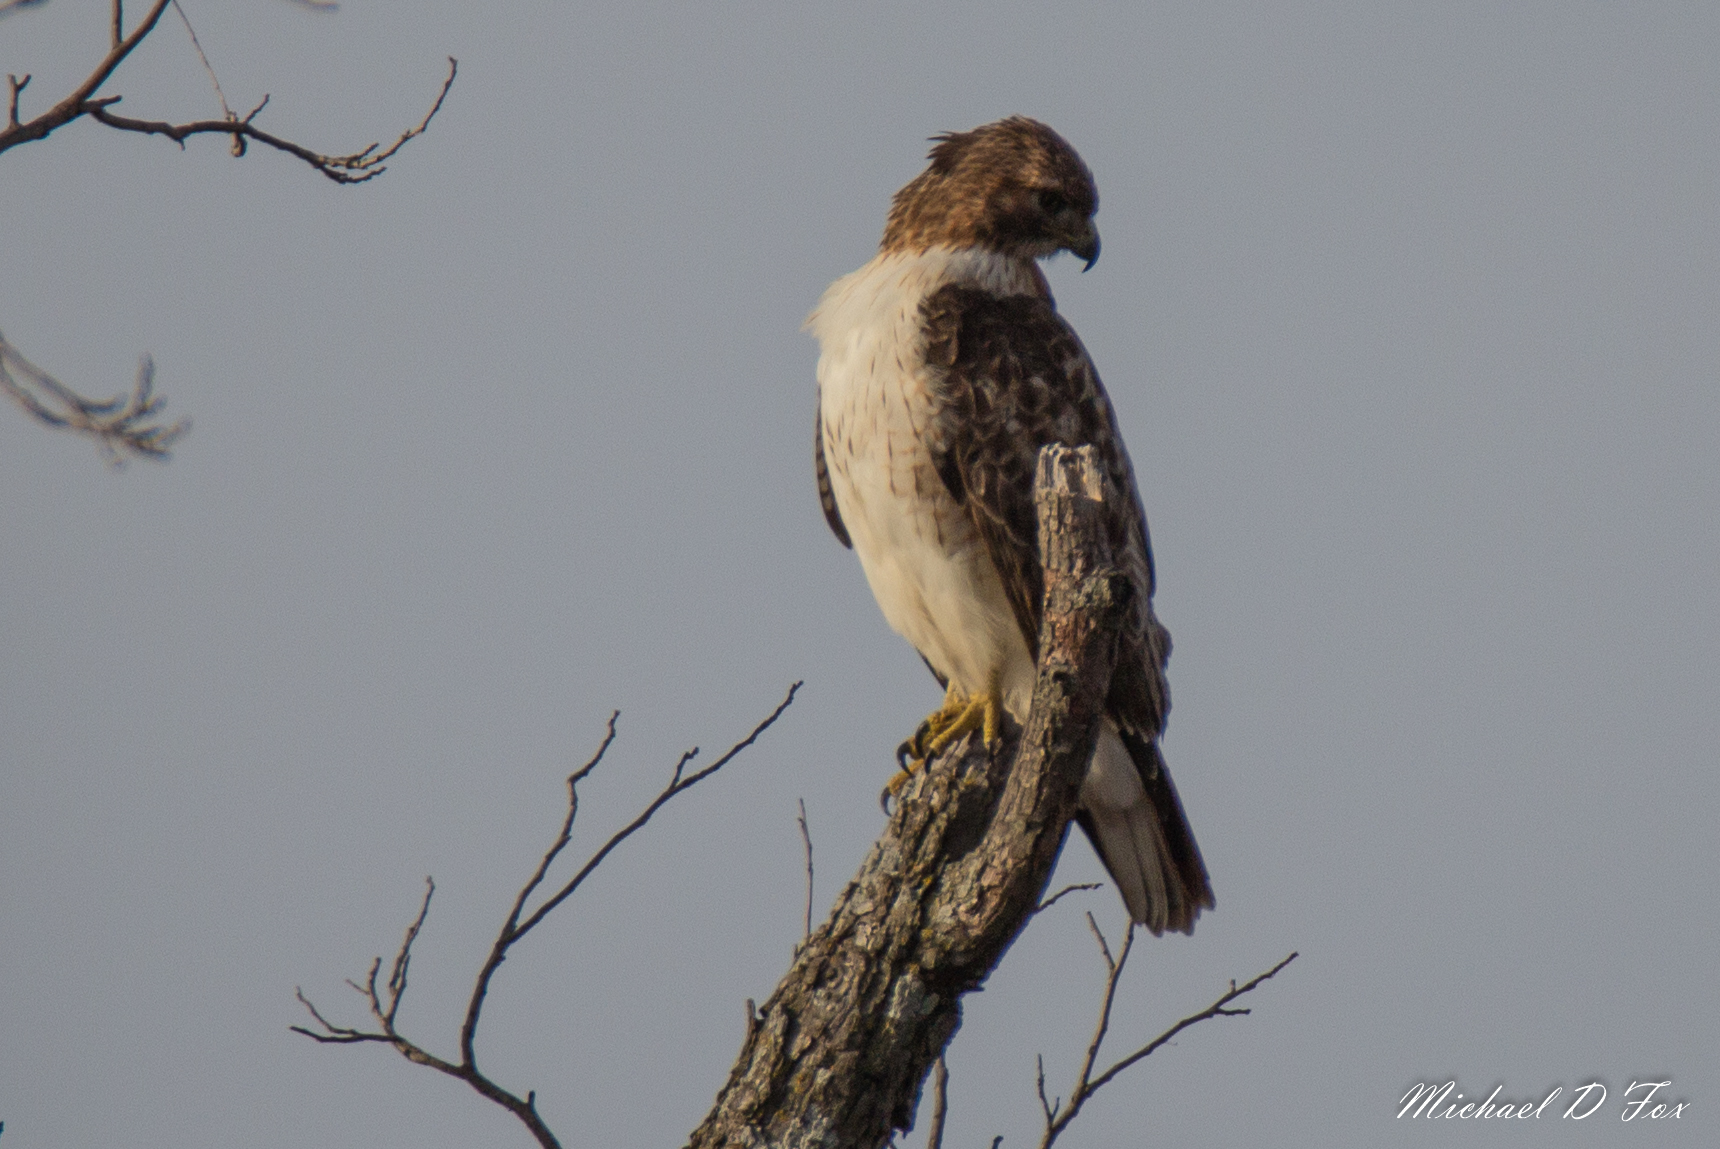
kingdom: Animalia
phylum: Chordata
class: Aves
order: Accipitriformes
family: Accipitridae
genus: Buteo
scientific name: Buteo jamaicensis
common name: Red-tailed hawk
